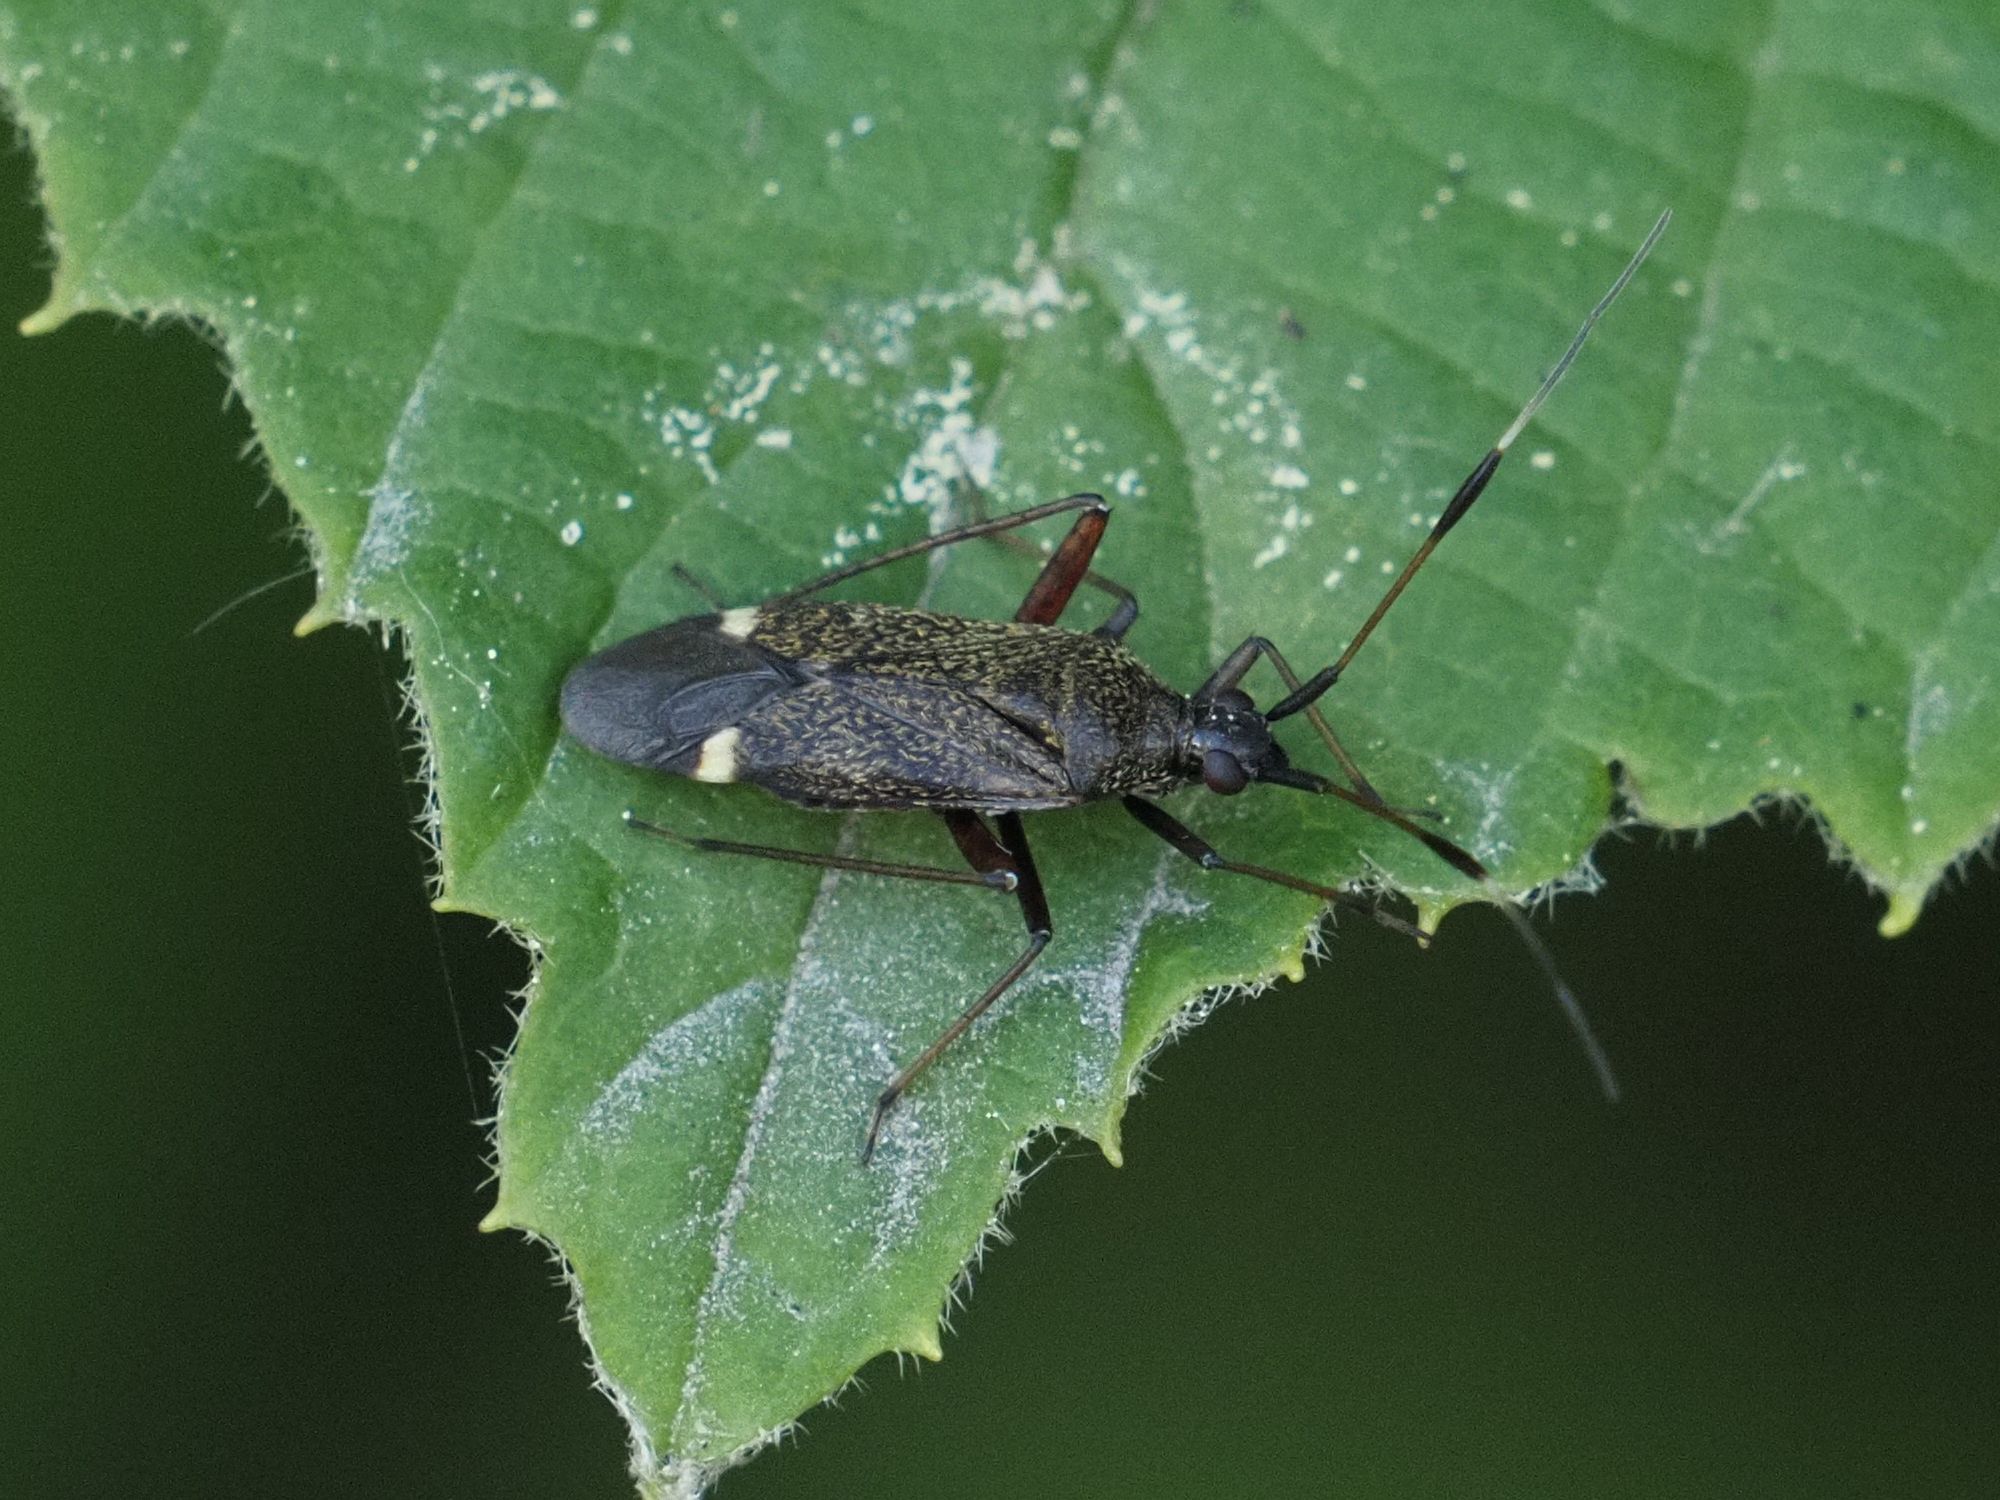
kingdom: Animalia
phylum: Arthropoda
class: Insecta
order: Hemiptera
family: Miridae
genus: Closterotomus
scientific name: Closterotomus biclavatus
